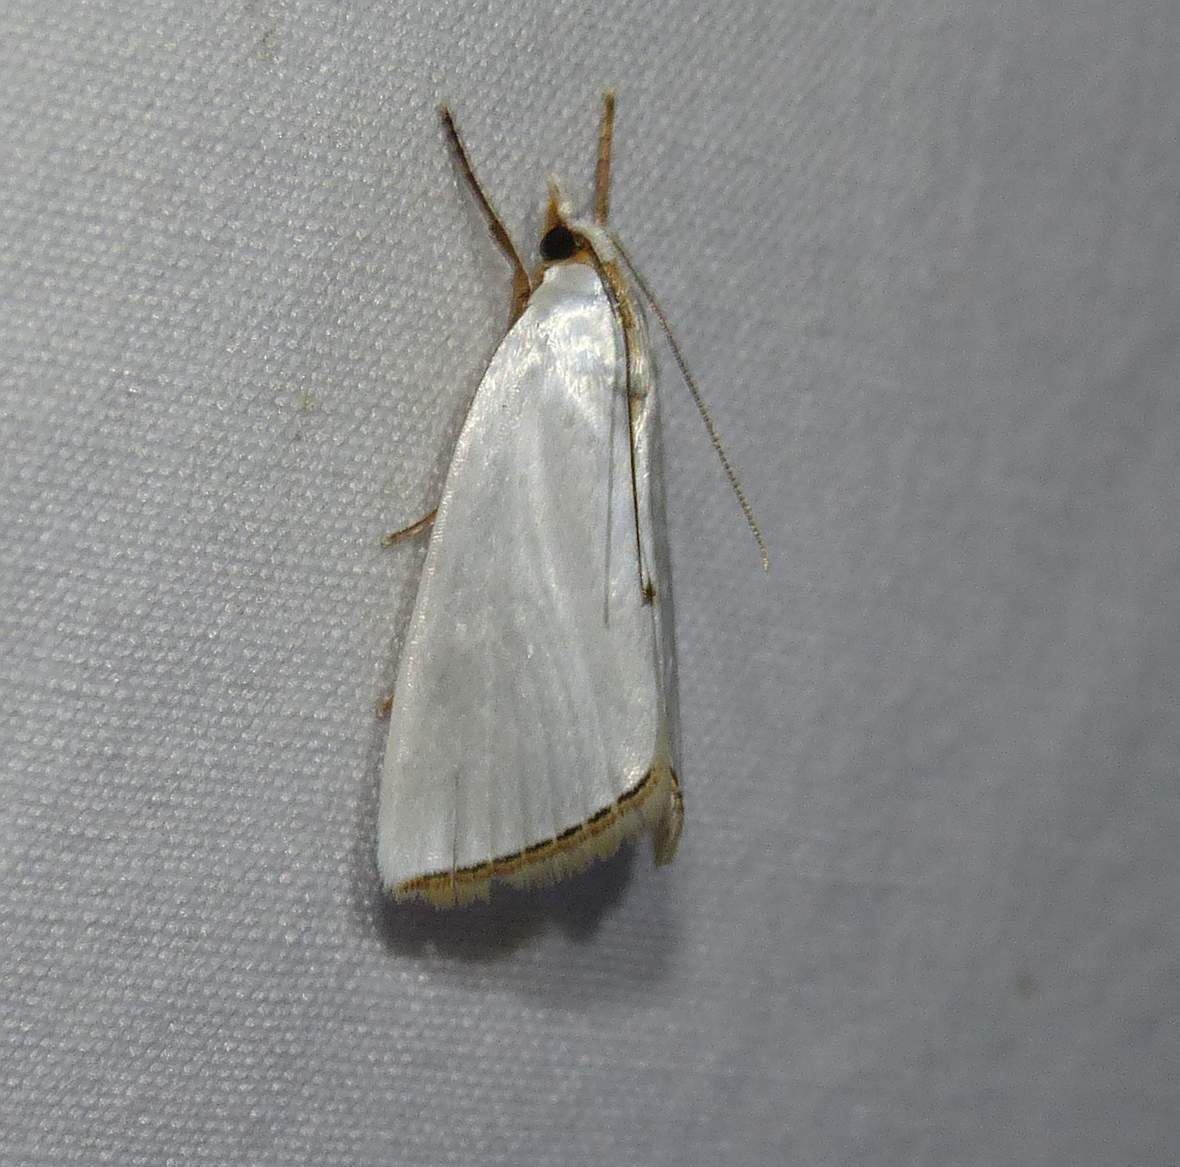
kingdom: Animalia
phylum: Arthropoda
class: Insecta
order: Lepidoptera
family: Crambidae
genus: Argyria
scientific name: Argyria nivalis
